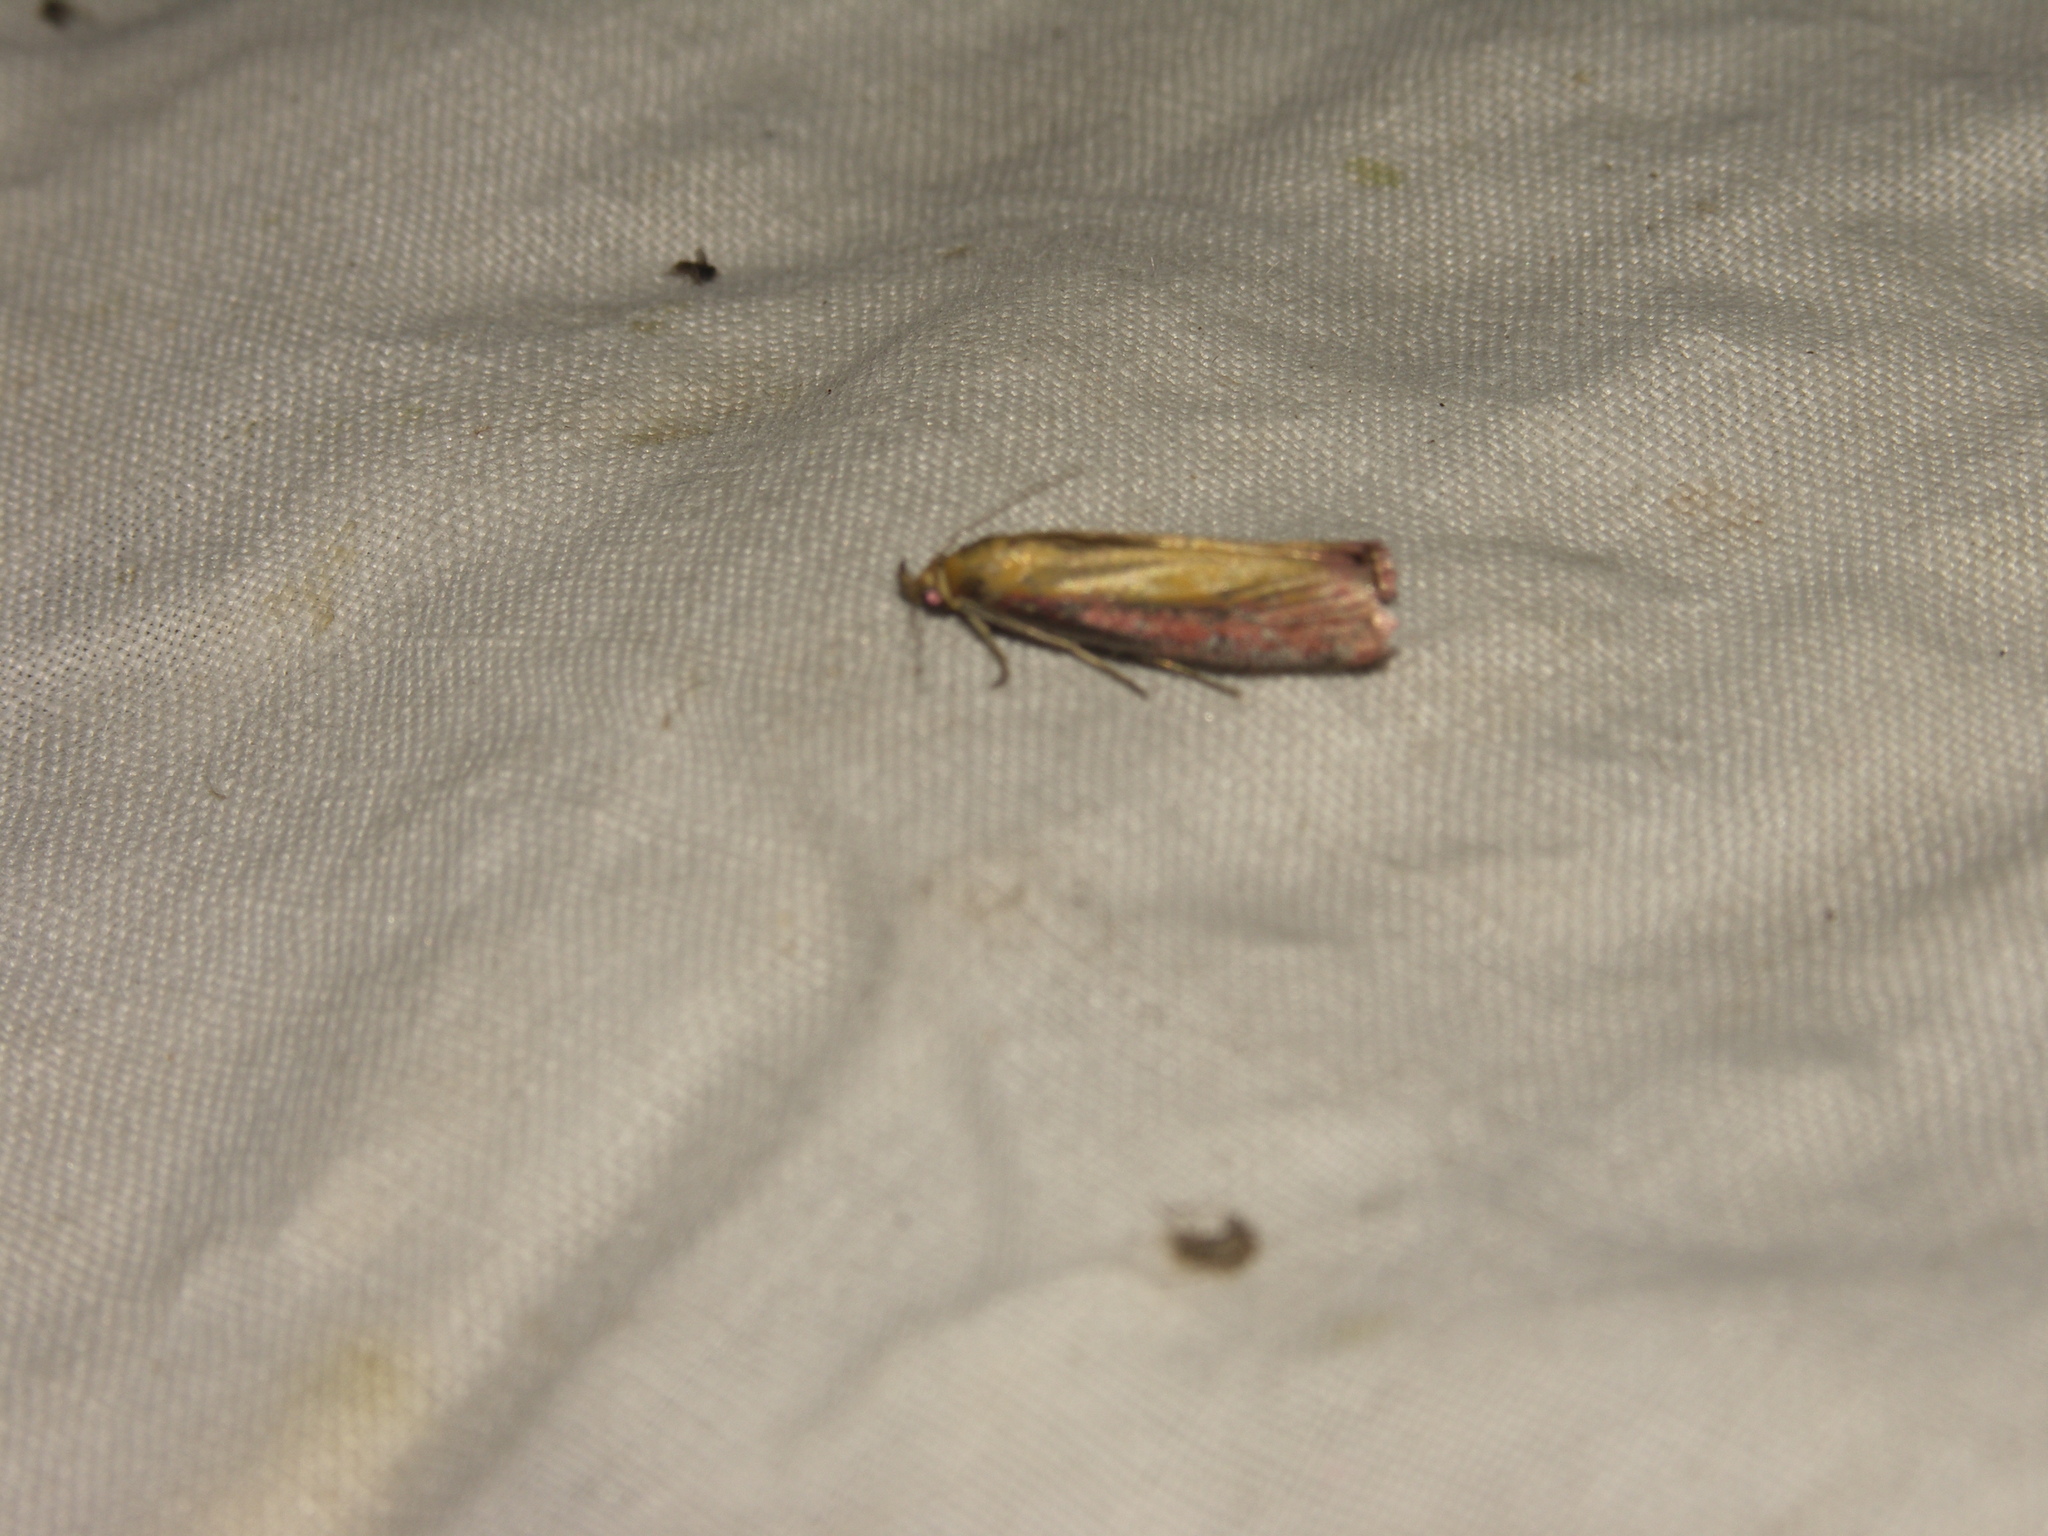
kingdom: Animalia
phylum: Arthropoda
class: Insecta
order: Lepidoptera
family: Pyralidae
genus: Oncocera
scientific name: Oncocera semirubella
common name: Rosy-striped knot-horn
